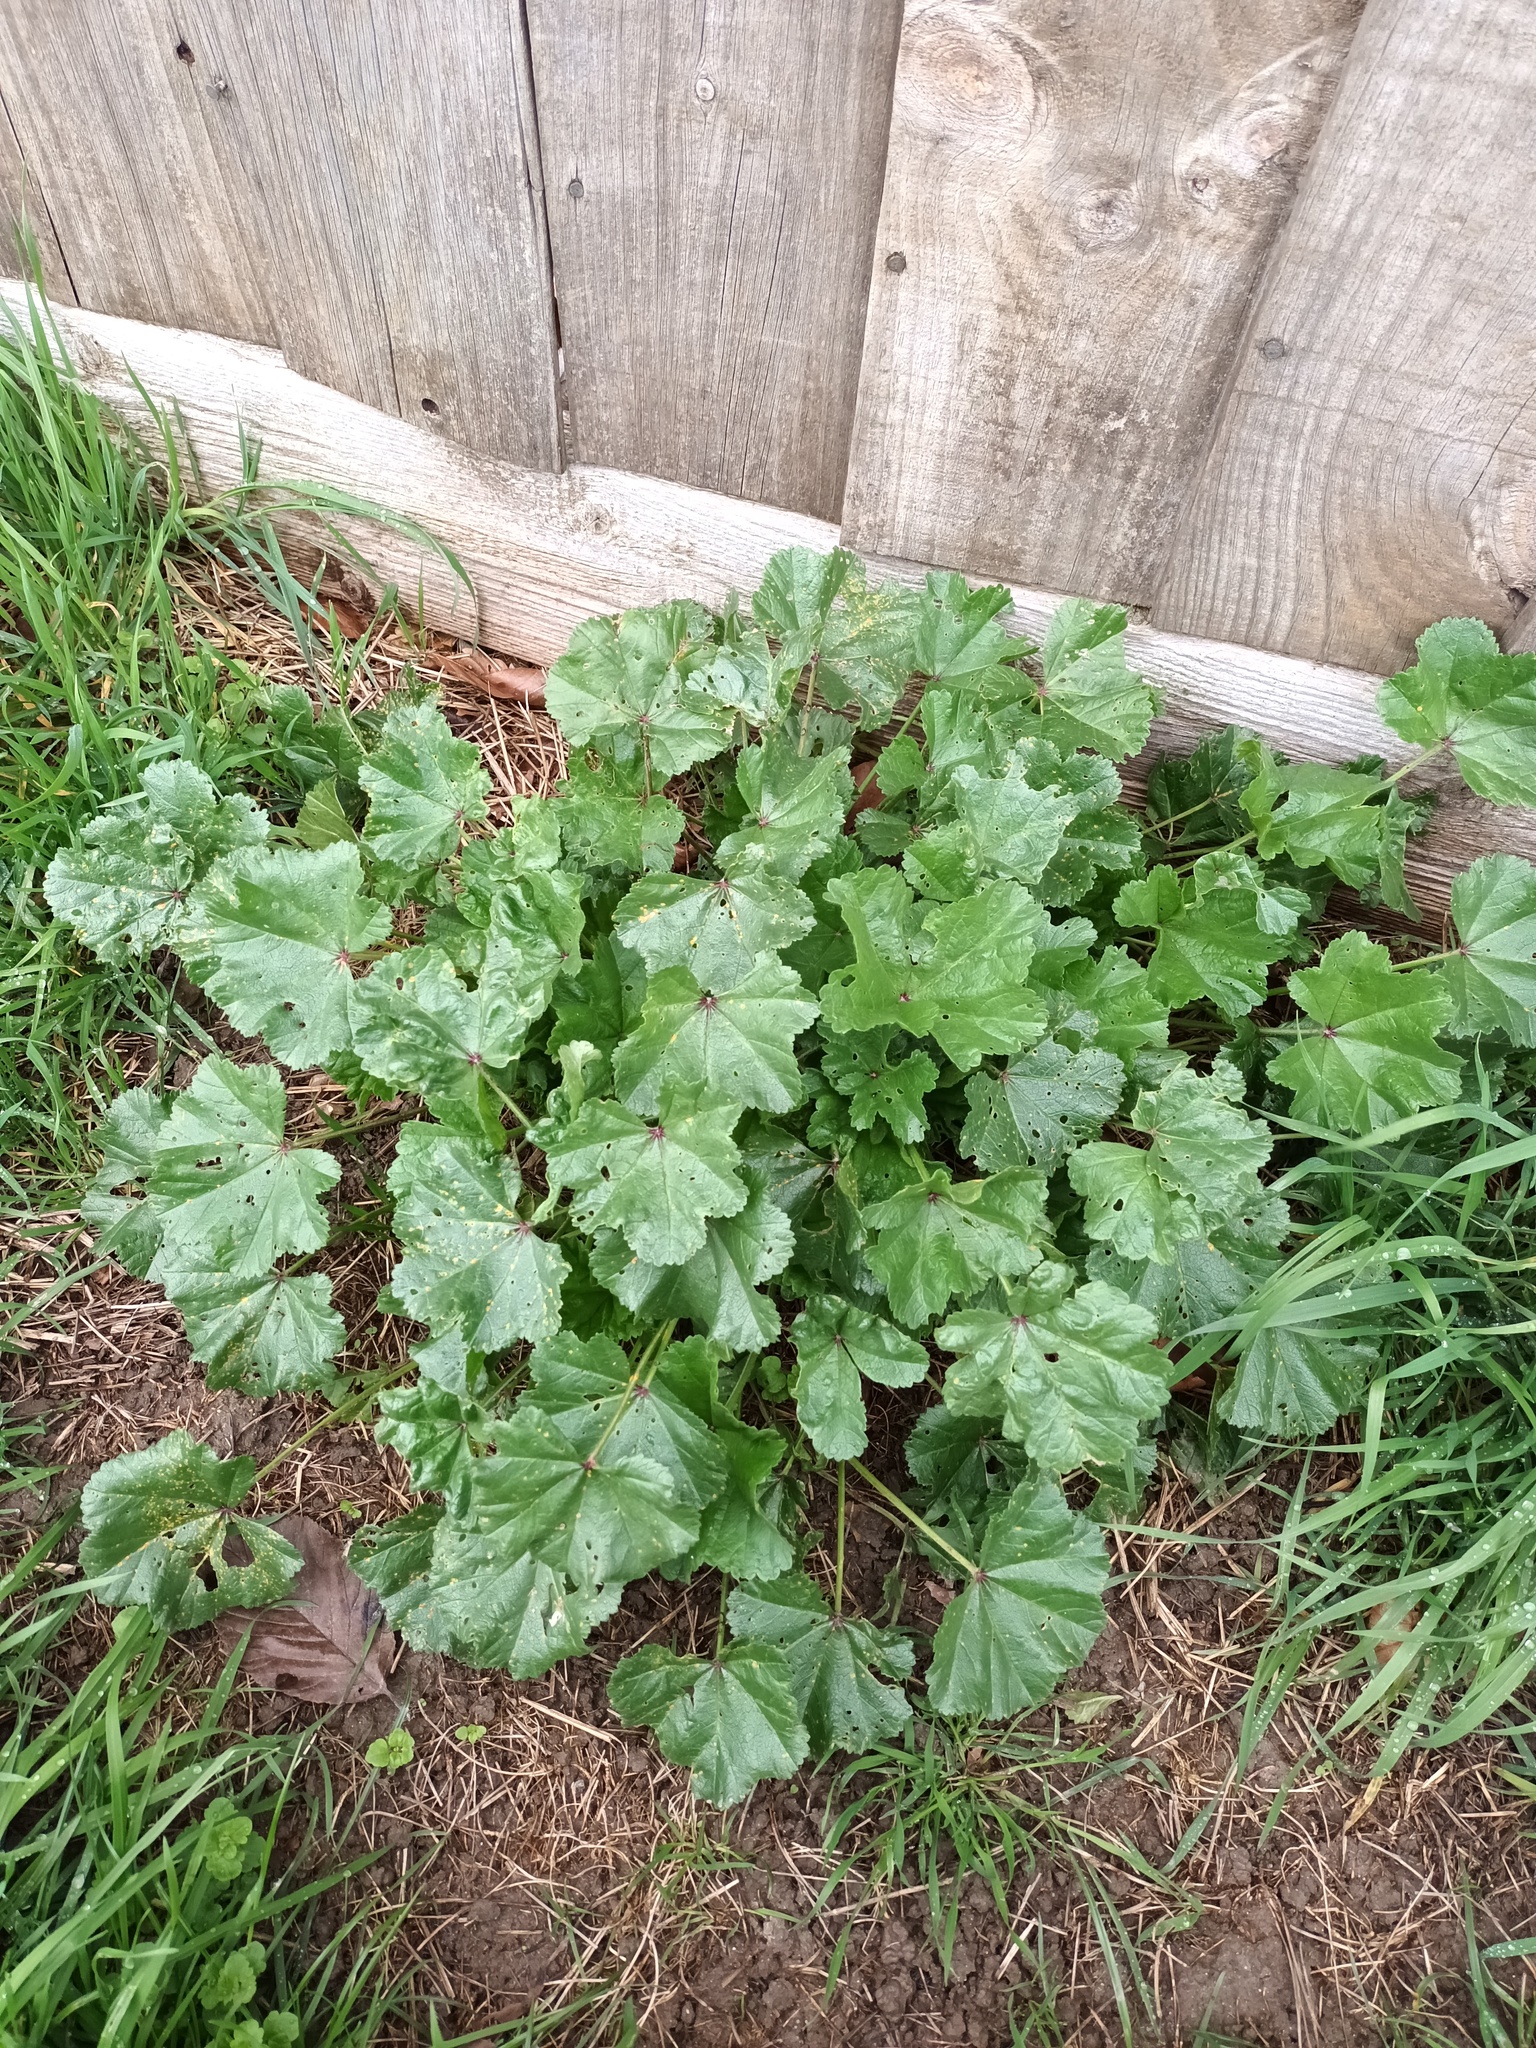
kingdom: Plantae
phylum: Tracheophyta
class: Magnoliopsida
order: Malvales
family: Malvaceae
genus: Malva
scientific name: Malva sylvestris
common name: Common mallow
